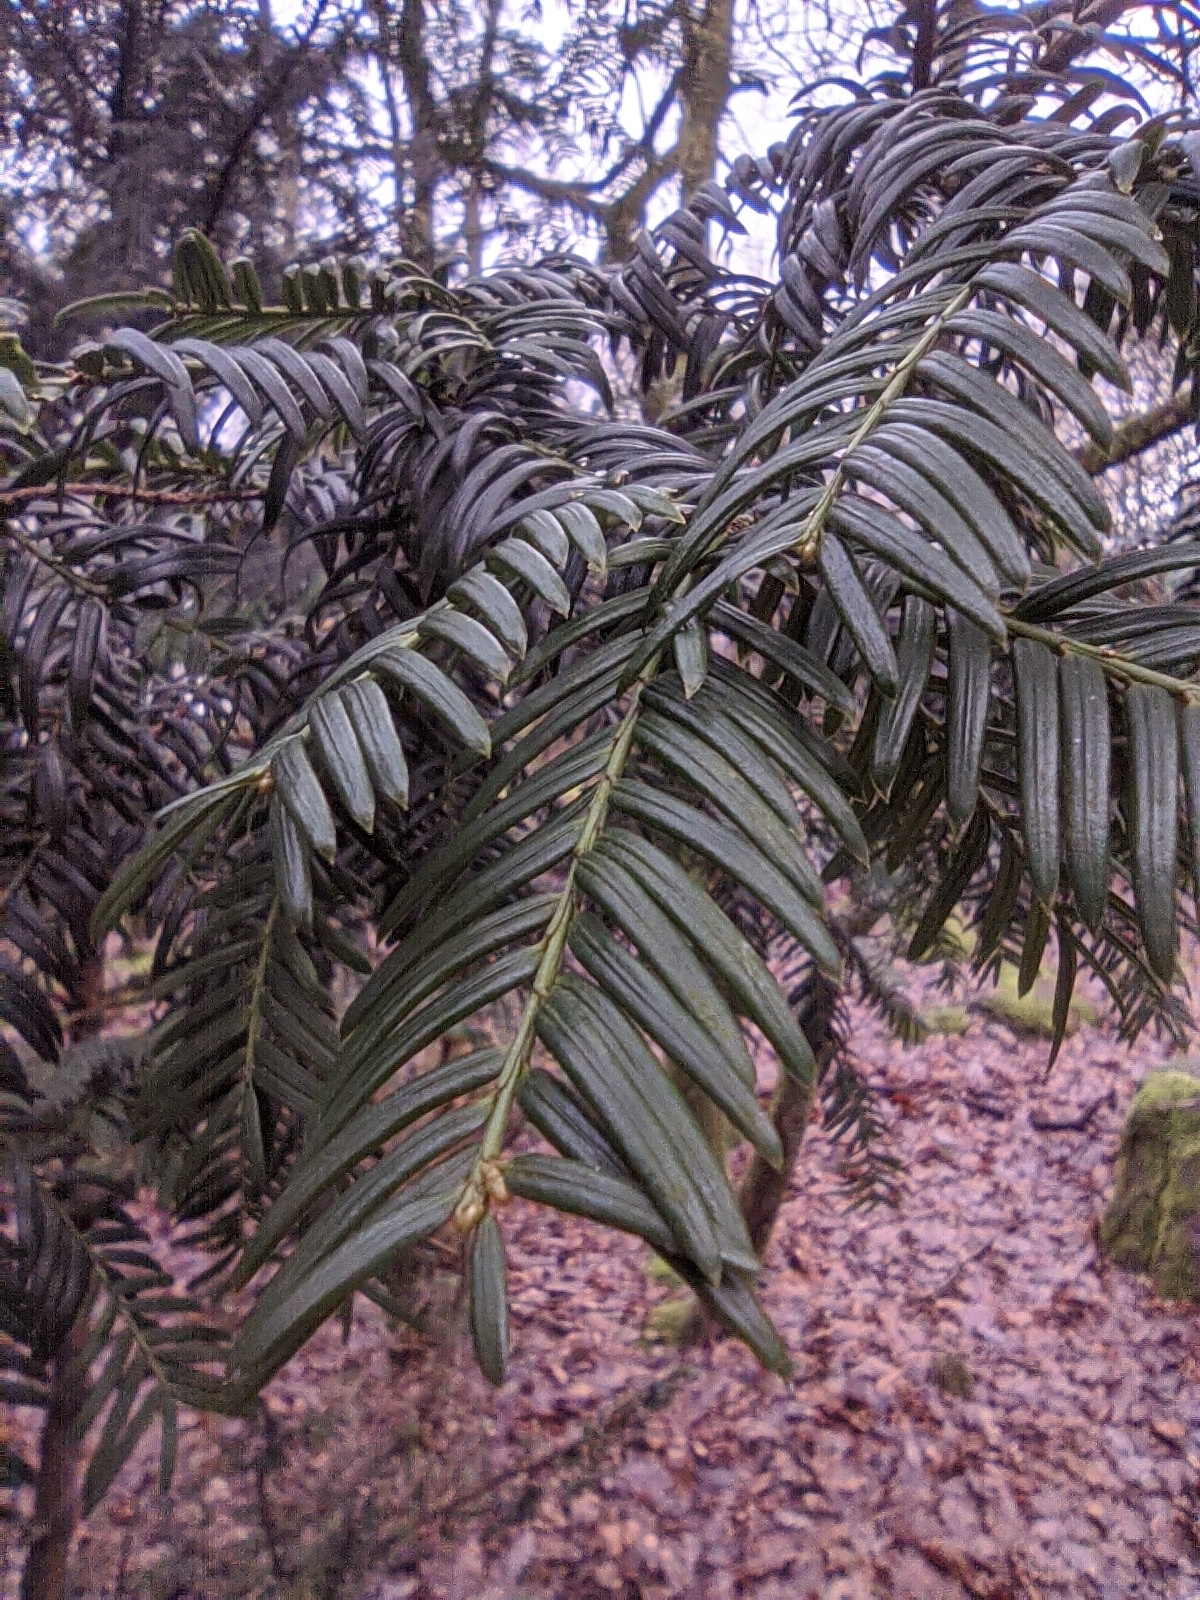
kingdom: Plantae
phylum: Tracheophyta
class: Pinopsida
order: Pinales
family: Taxaceae
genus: Taxus
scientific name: Taxus baccata
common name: Yew
